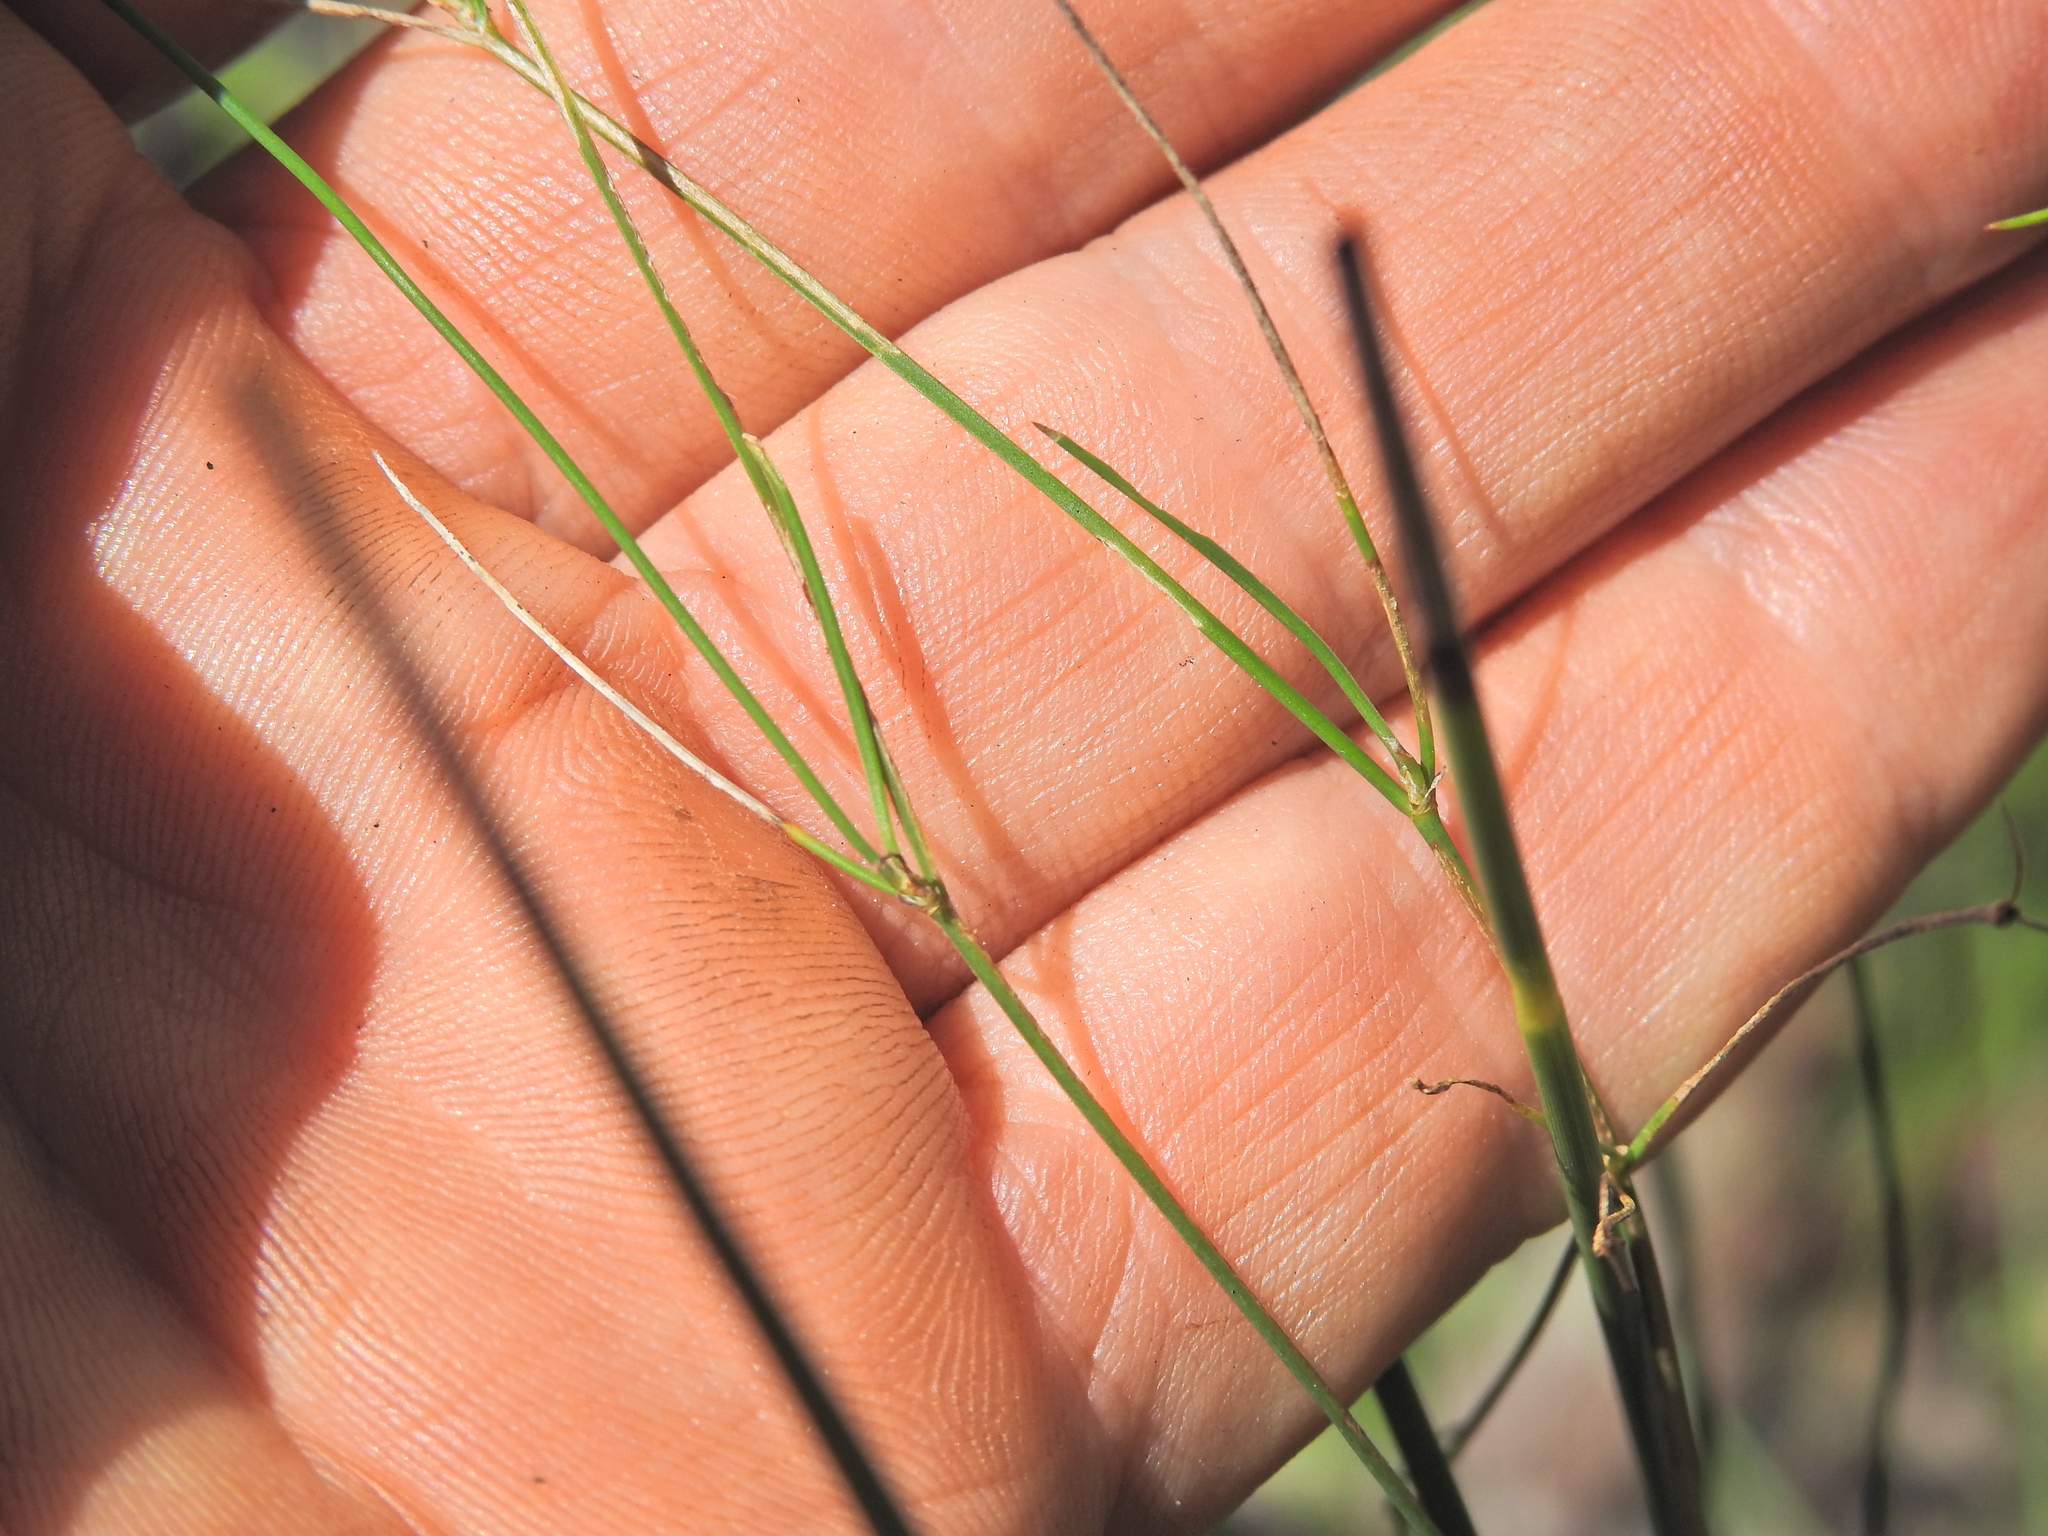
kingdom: Plantae
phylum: Tracheophyta
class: Liliopsida
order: Asparagales
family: Asphodelaceae
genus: Tricoryne
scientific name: Tricoryne elatior
